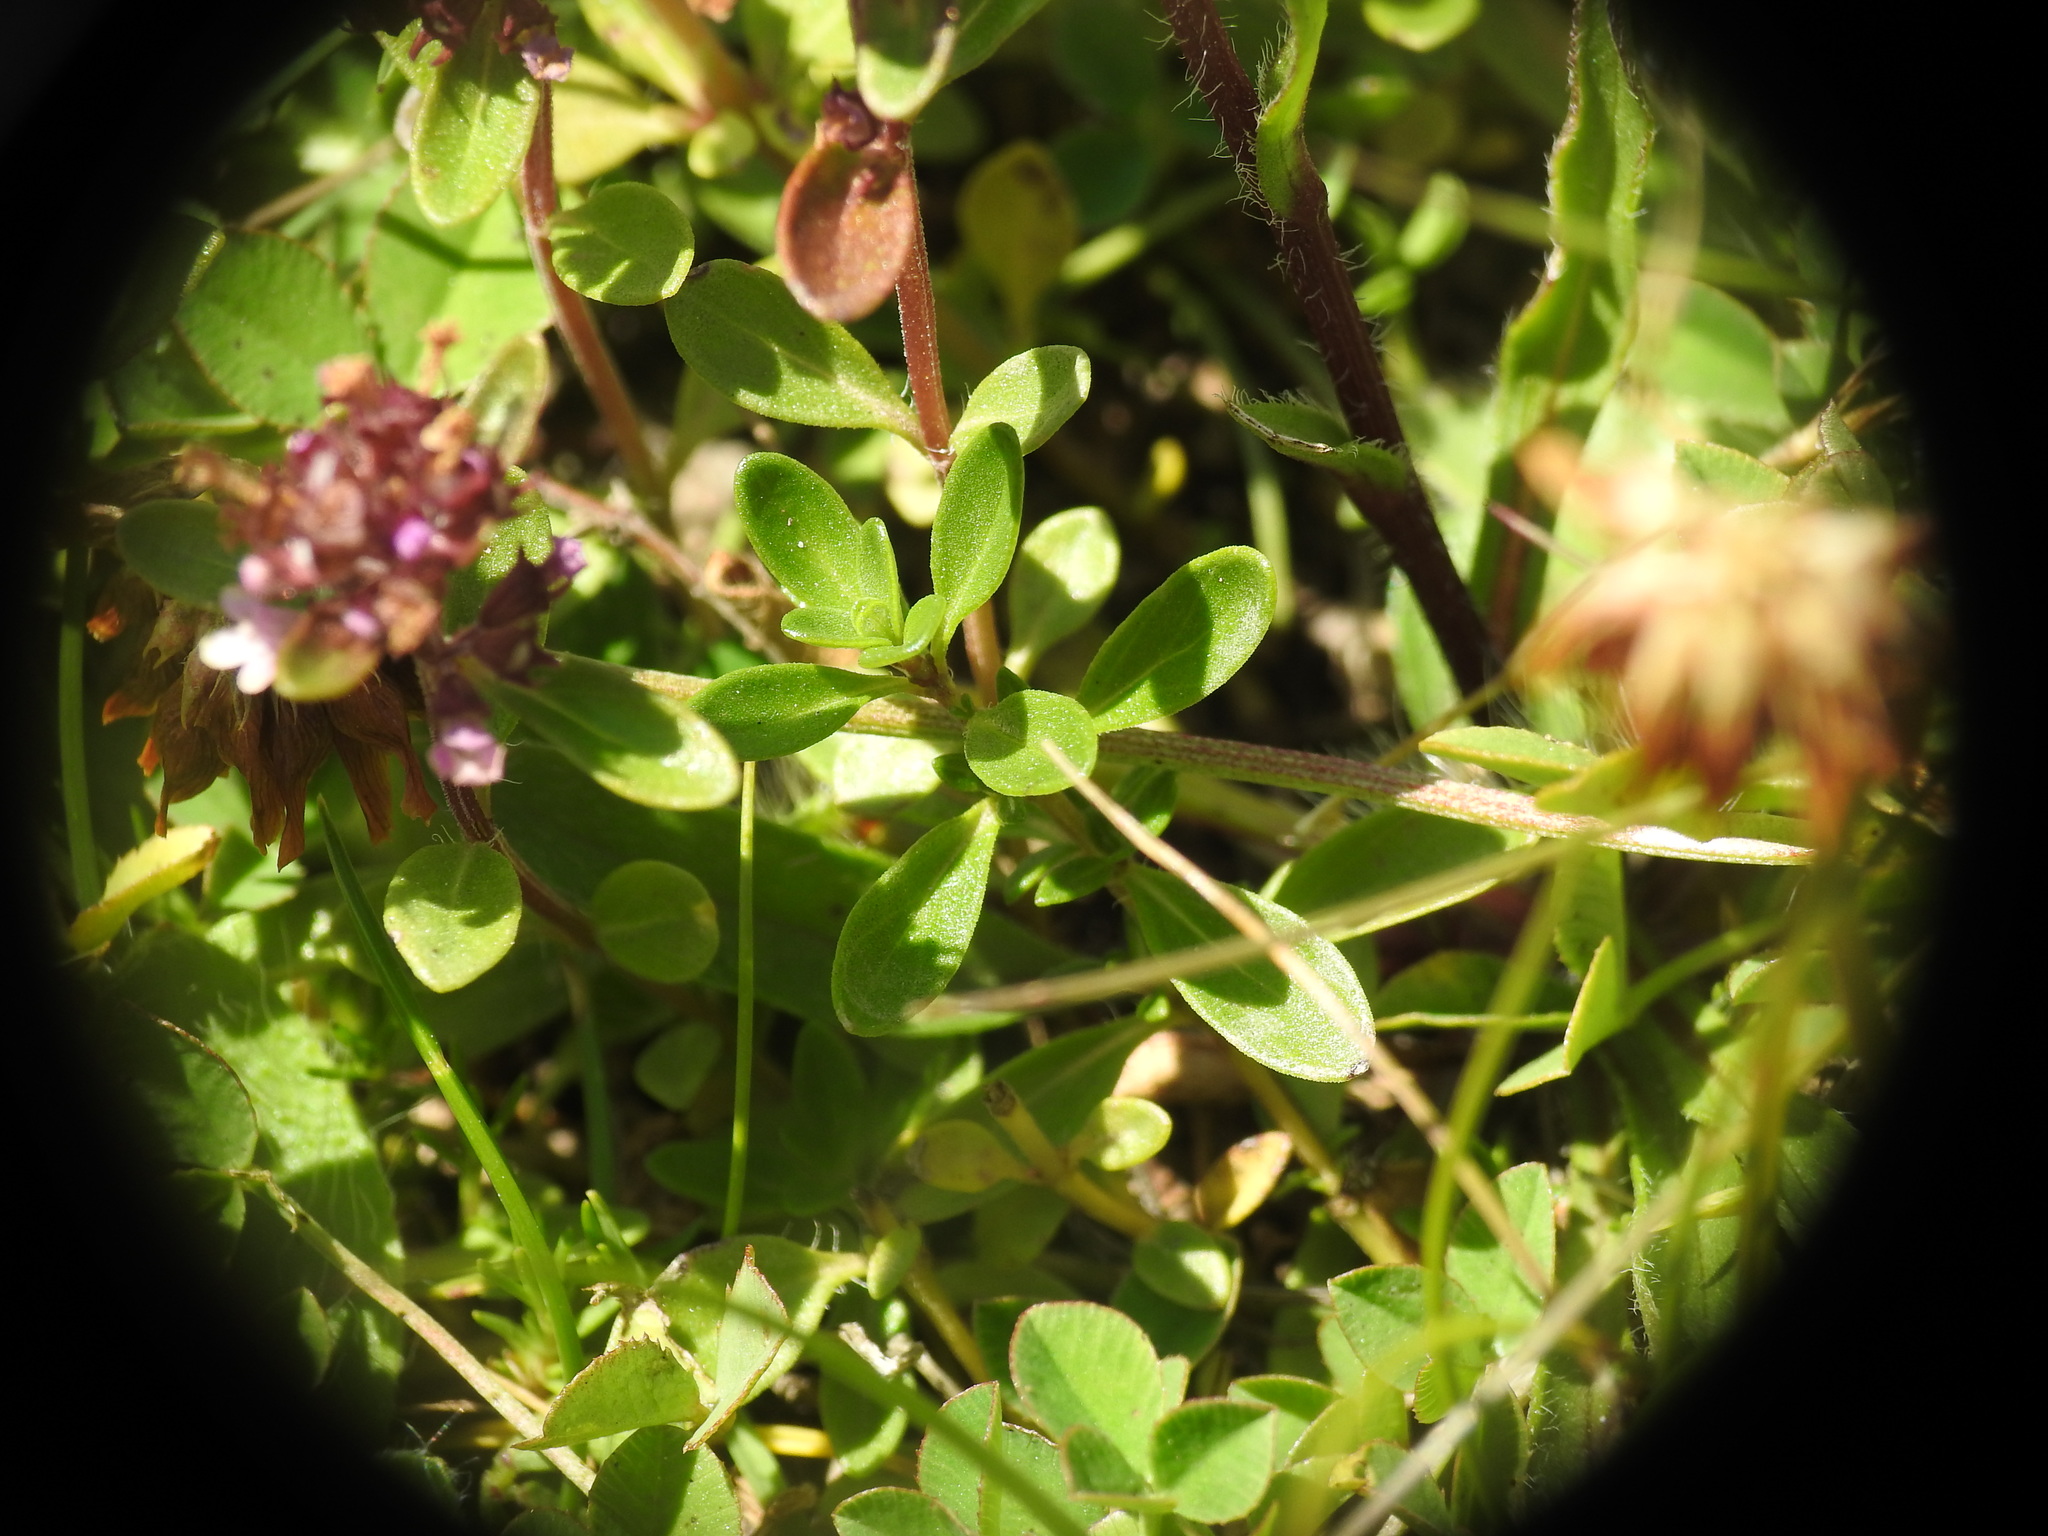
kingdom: Plantae
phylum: Tracheophyta
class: Magnoliopsida
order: Lamiales
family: Lamiaceae
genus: Thymus
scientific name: Thymus pulegioides
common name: Large thyme
